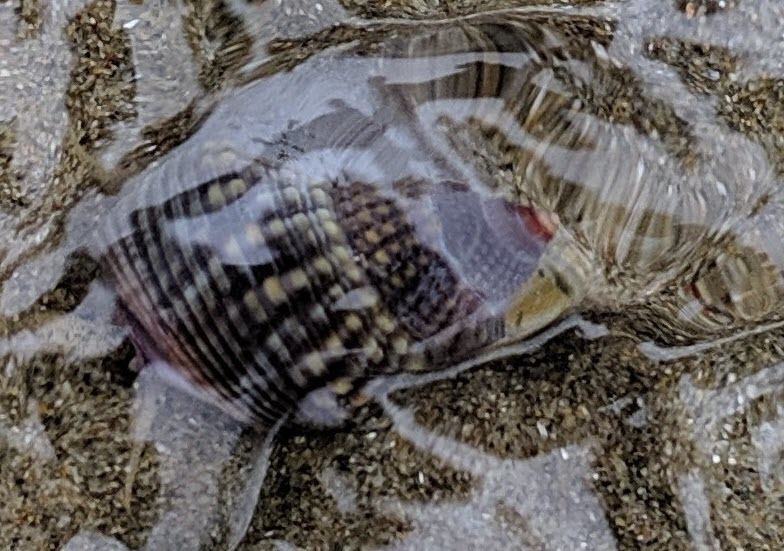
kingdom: Animalia
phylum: Mollusca
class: Gastropoda
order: Neogastropoda
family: Nassariidae
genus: Caesia
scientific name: Caesia fossata
